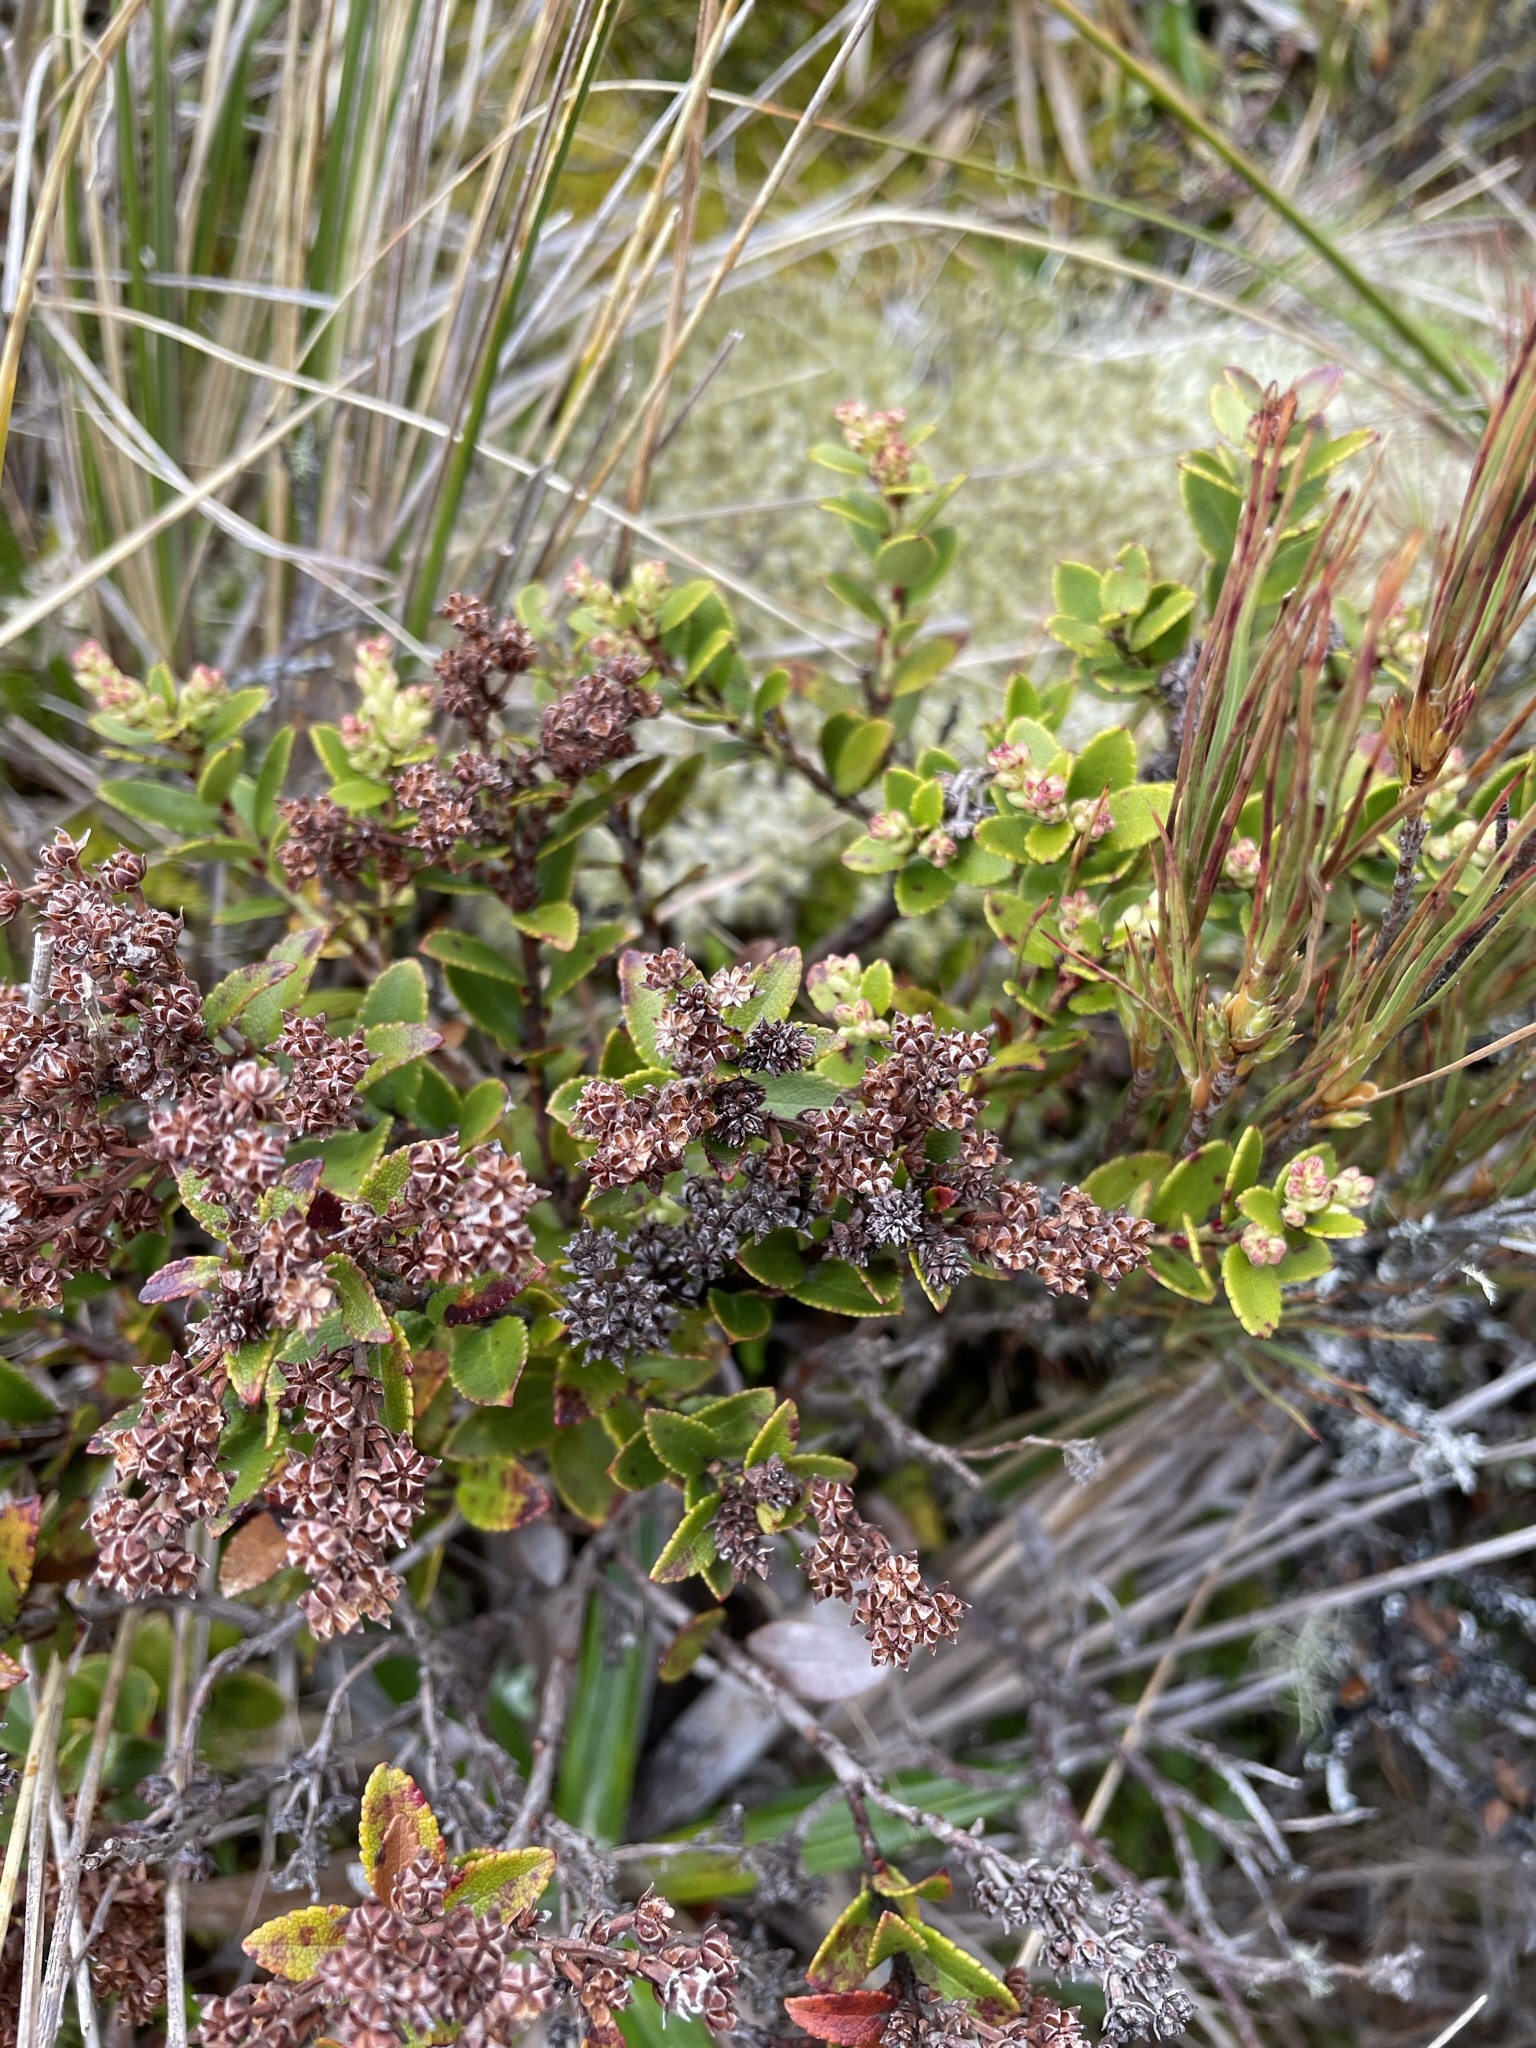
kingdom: Plantae
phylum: Tracheophyta
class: Magnoliopsida
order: Ericales
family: Ericaceae
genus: Gaultheria
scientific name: Gaultheria crassa
